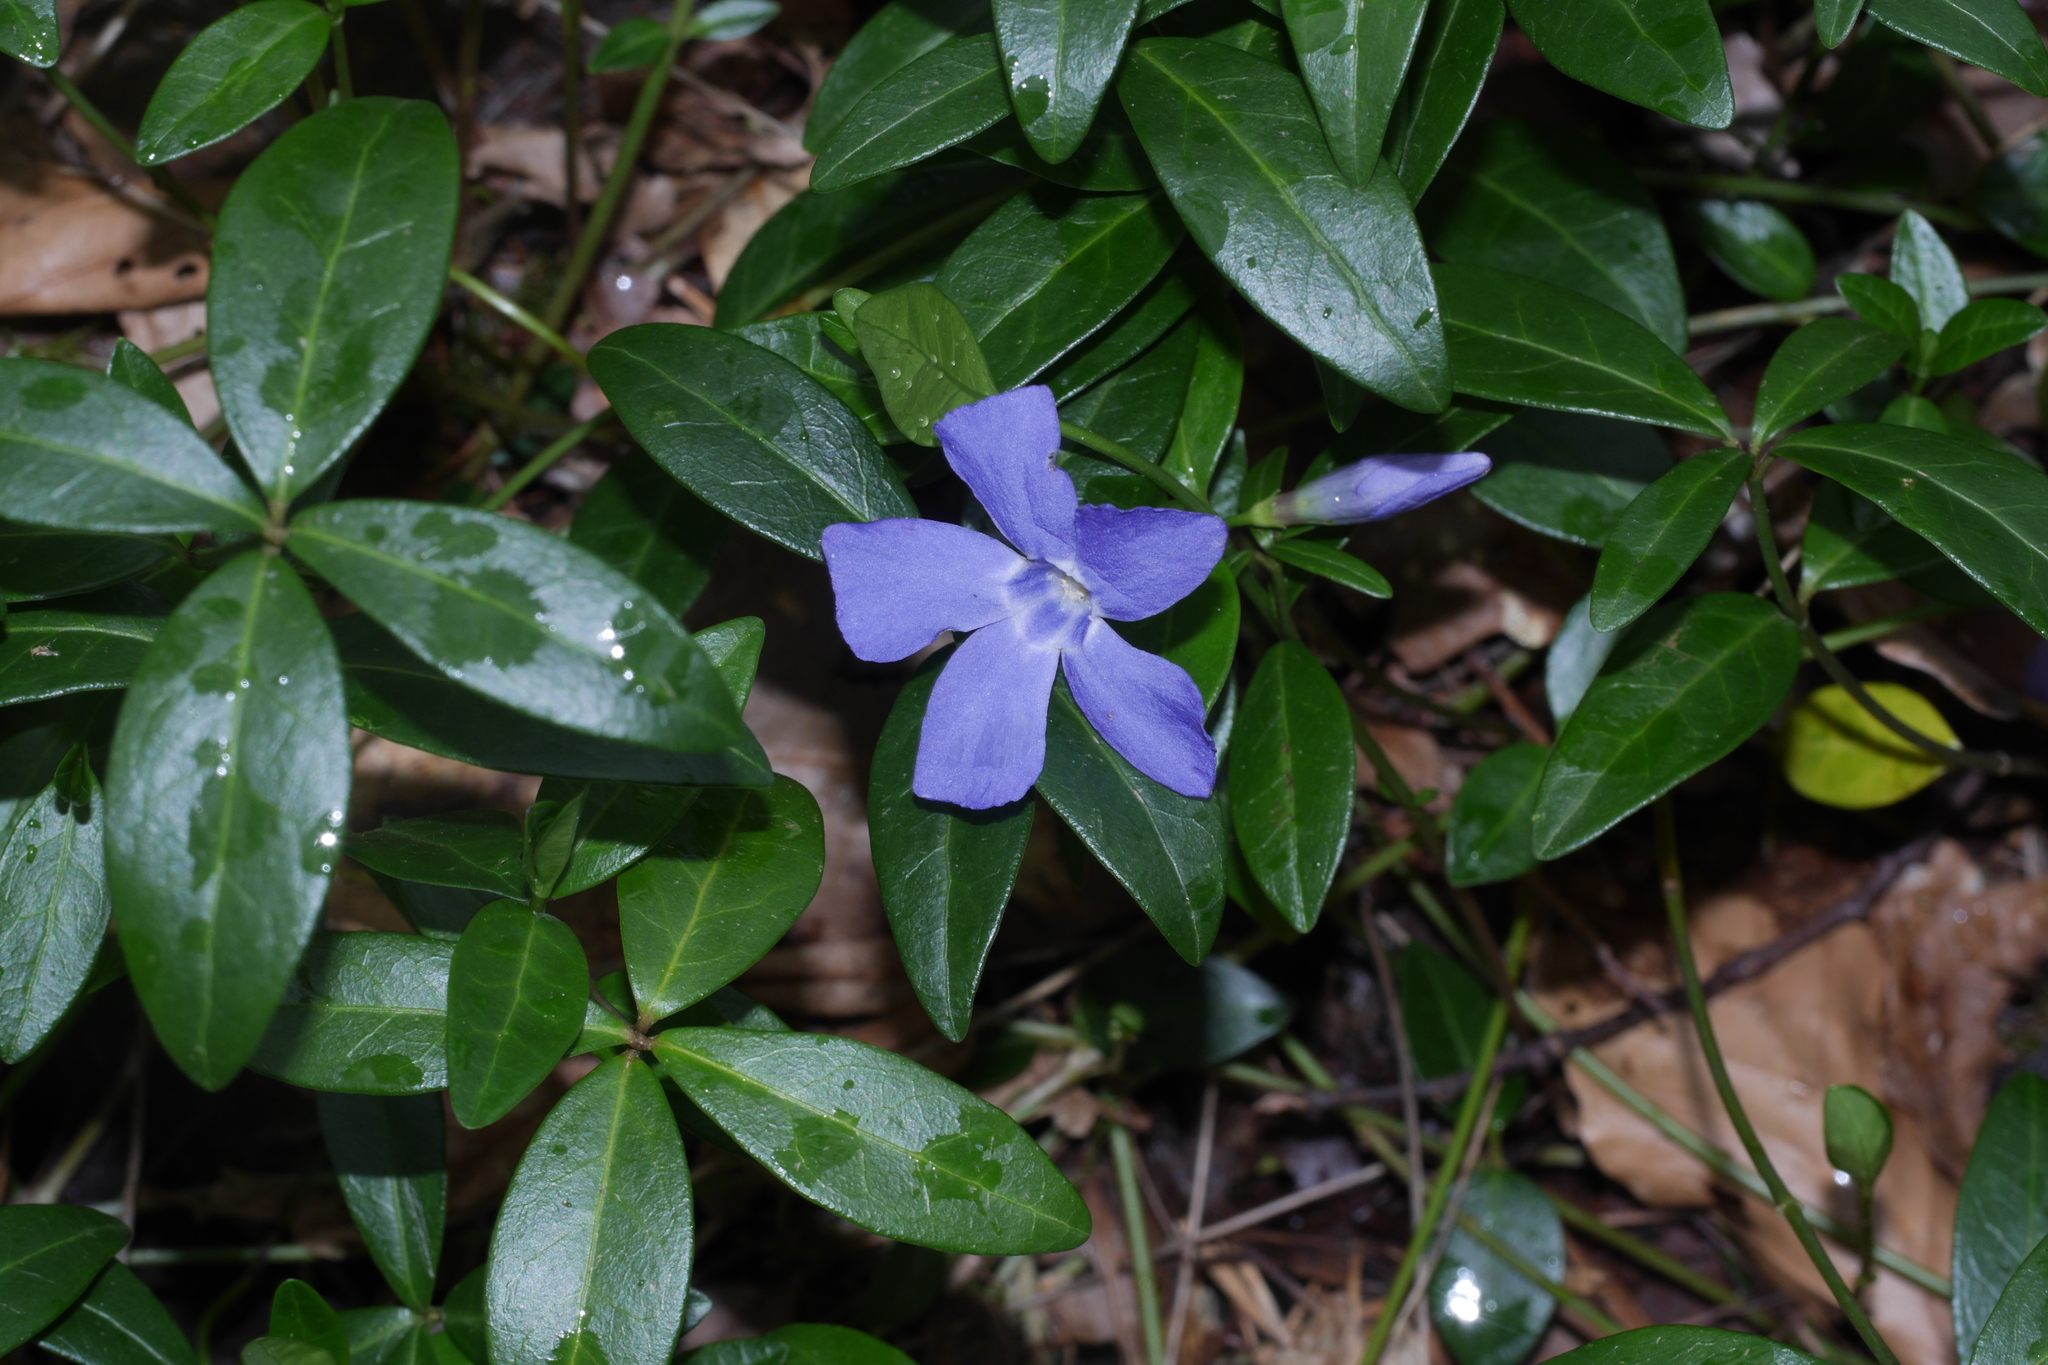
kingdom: Plantae
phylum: Tracheophyta
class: Magnoliopsida
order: Gentianales
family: Apocynaceae
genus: Vinca
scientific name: Vinca minor
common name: Lesser periwinkle
